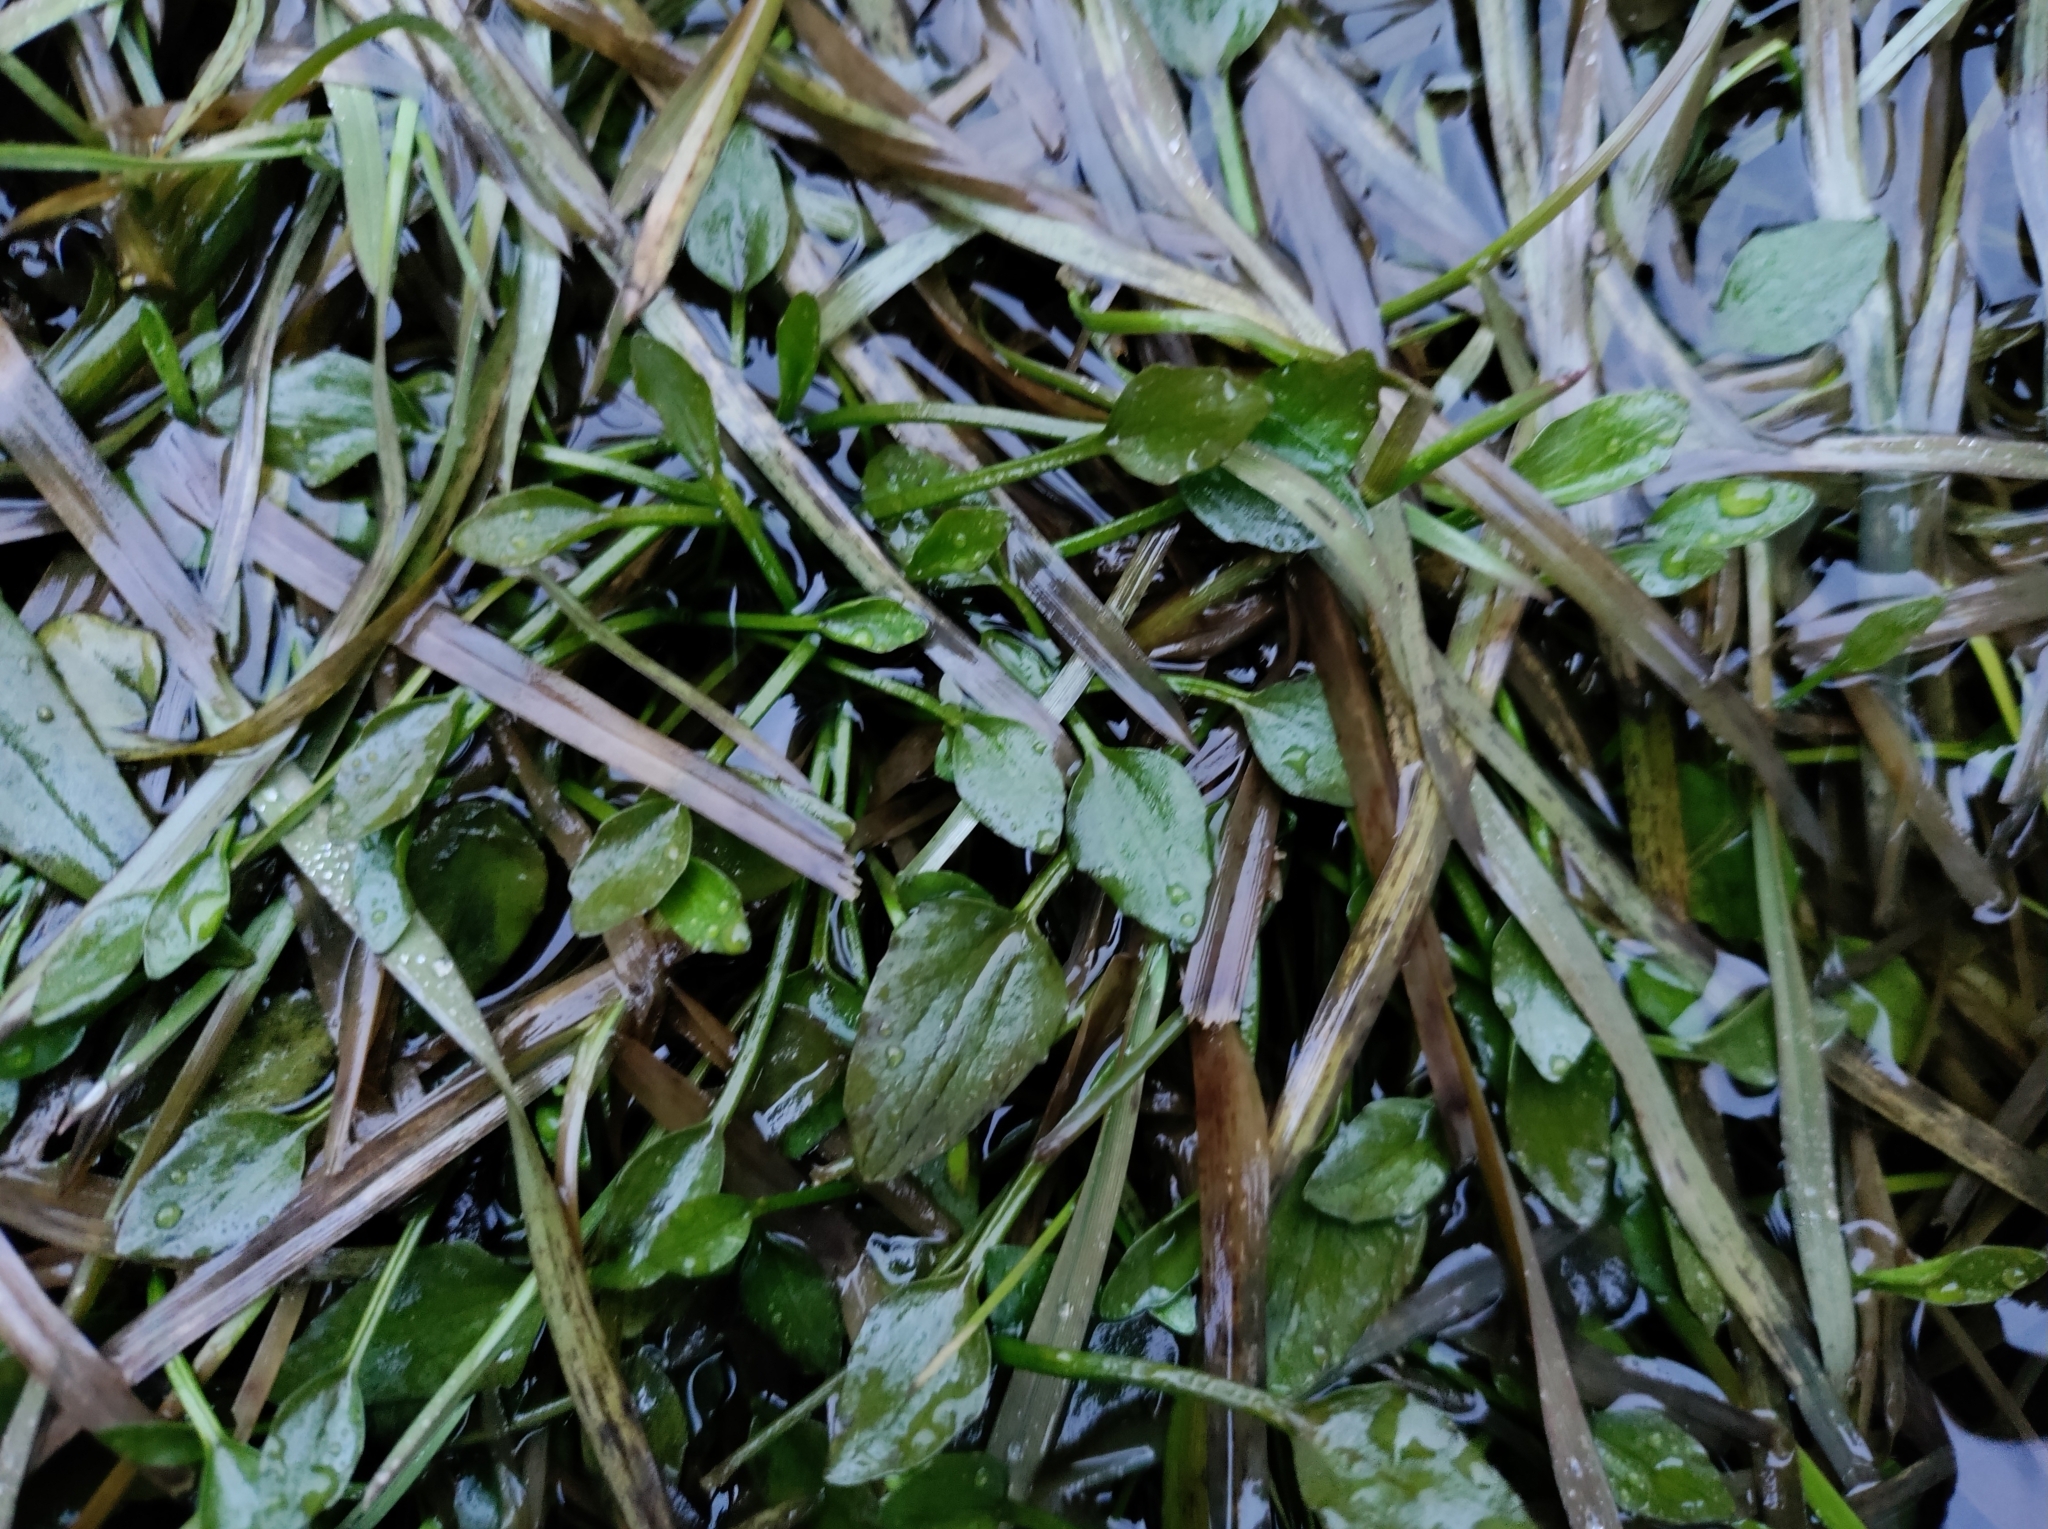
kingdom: Plantae
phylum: Tracheophyta
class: Magnoliopsida
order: Ranunculales
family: Ranunculaceae
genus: Ranunculus
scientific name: Ranunculus flammula
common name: Lesser spearwort
